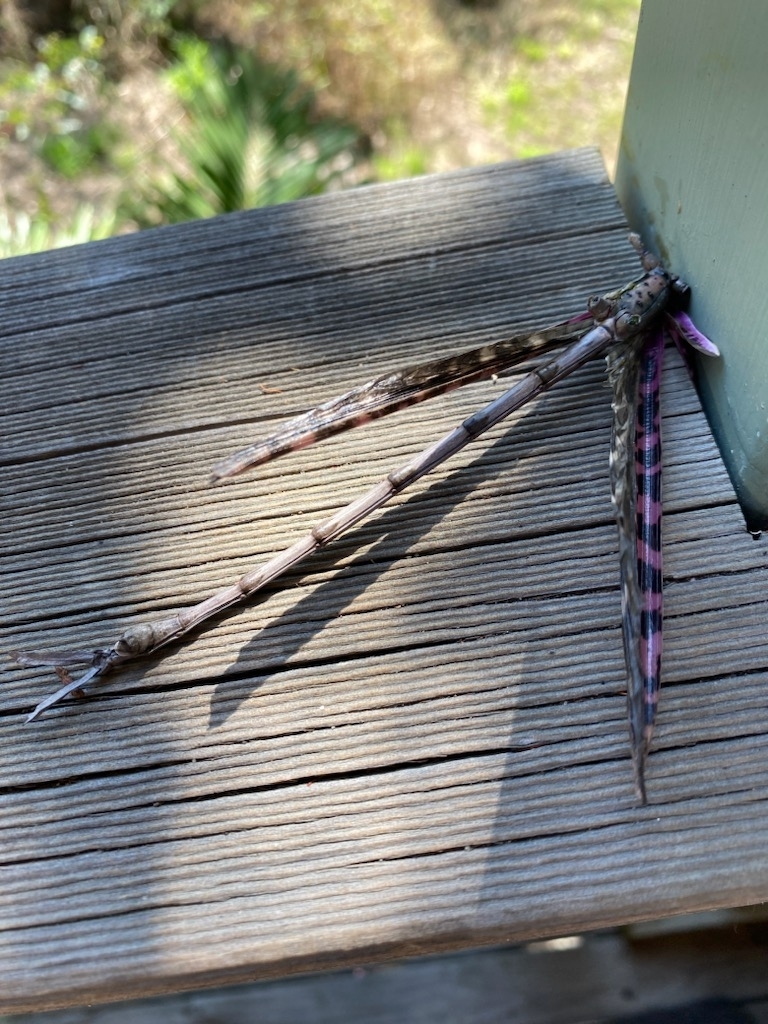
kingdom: Animalia
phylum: Arthropoda
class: Insecta
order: Phasmida
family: Phasmatidae
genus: Acrophylla
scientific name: Acrophylla titan
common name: Titan stick insect
